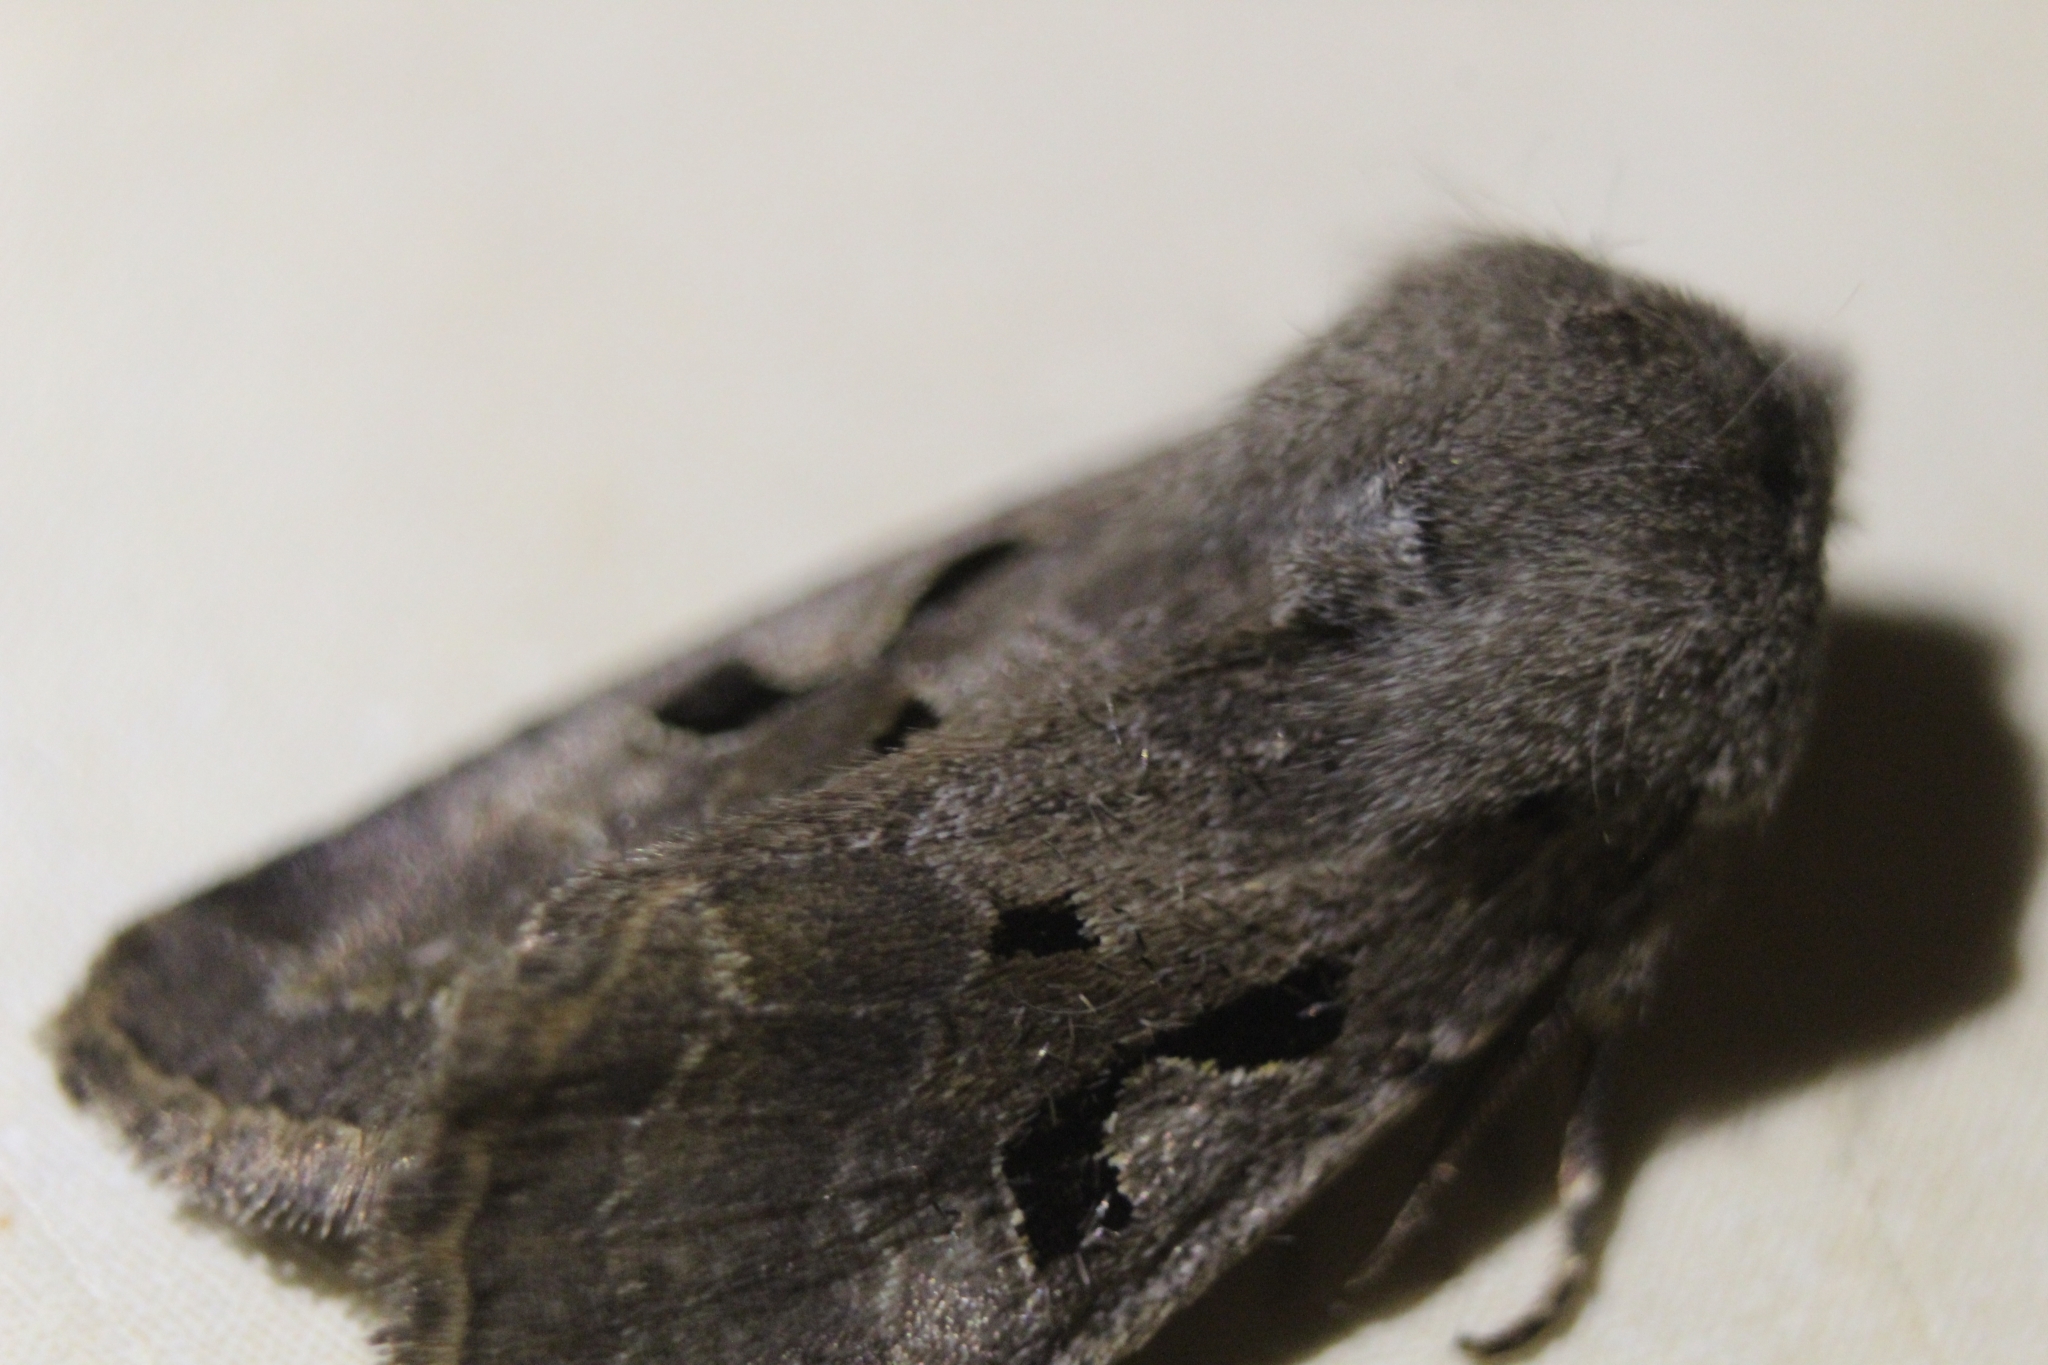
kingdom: Animalia
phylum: Arthropoda
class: Insecta
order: Lepidoptera
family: Noctuidae
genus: Orthosia
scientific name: Orthosia gothica
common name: Hebrew character
